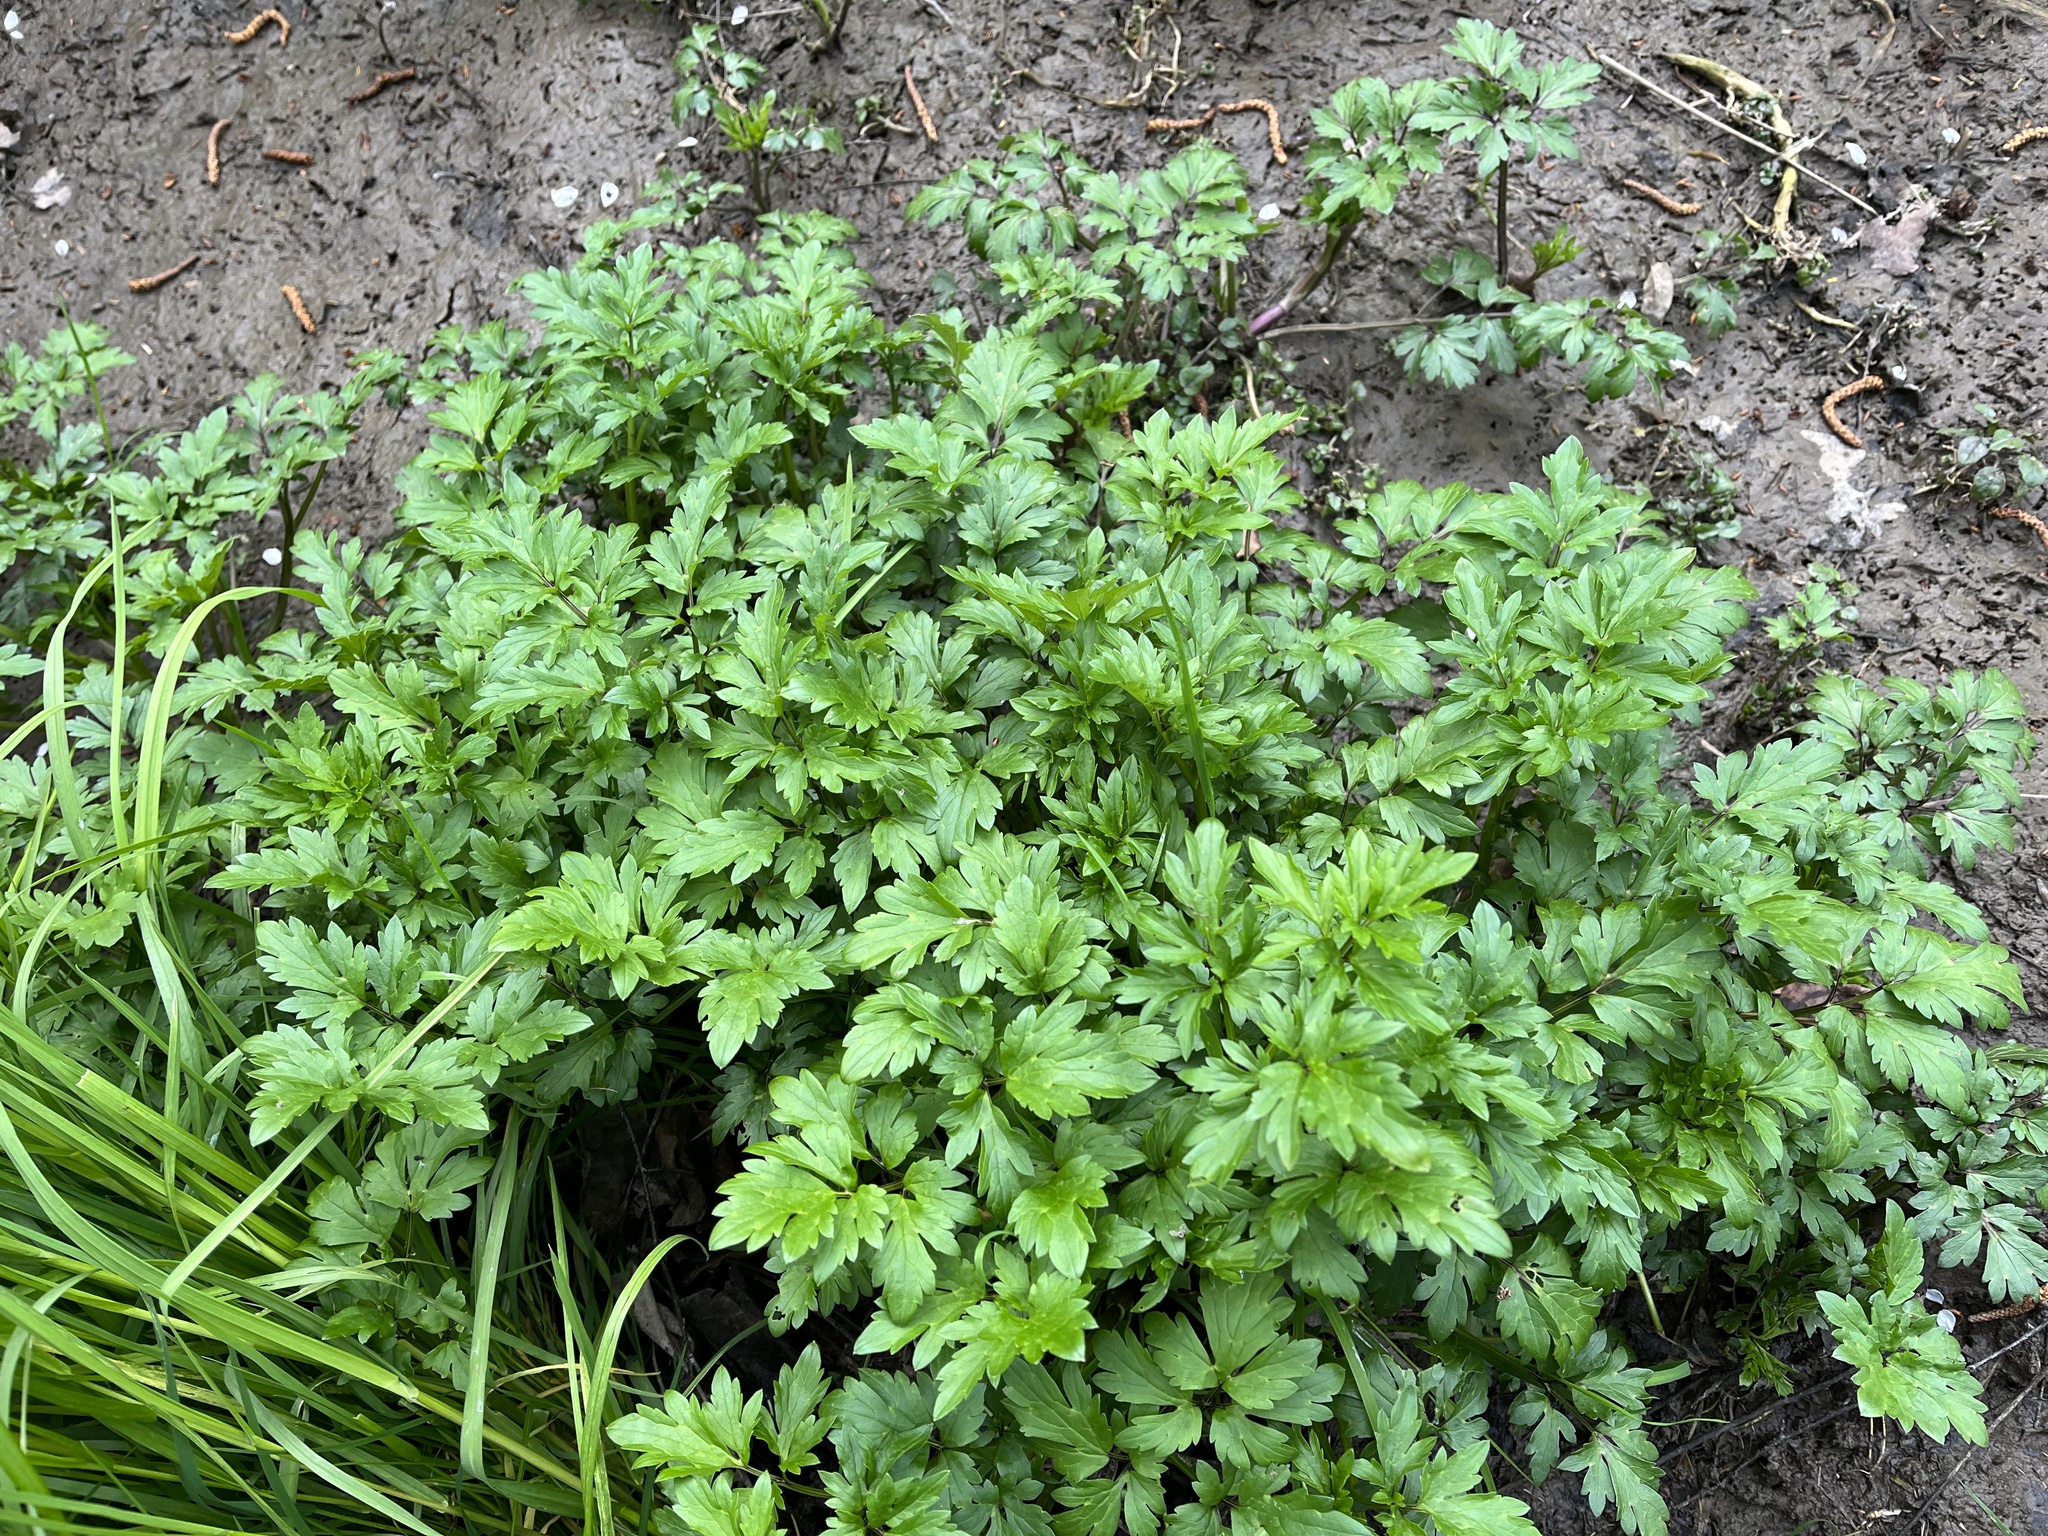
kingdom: Plantae
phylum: Tracheophyta
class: Magnoliopsida
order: Ranunculales
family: Ranunculaceae
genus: Ranunculus
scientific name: Ranunculus repens
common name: Creeping buttercup
